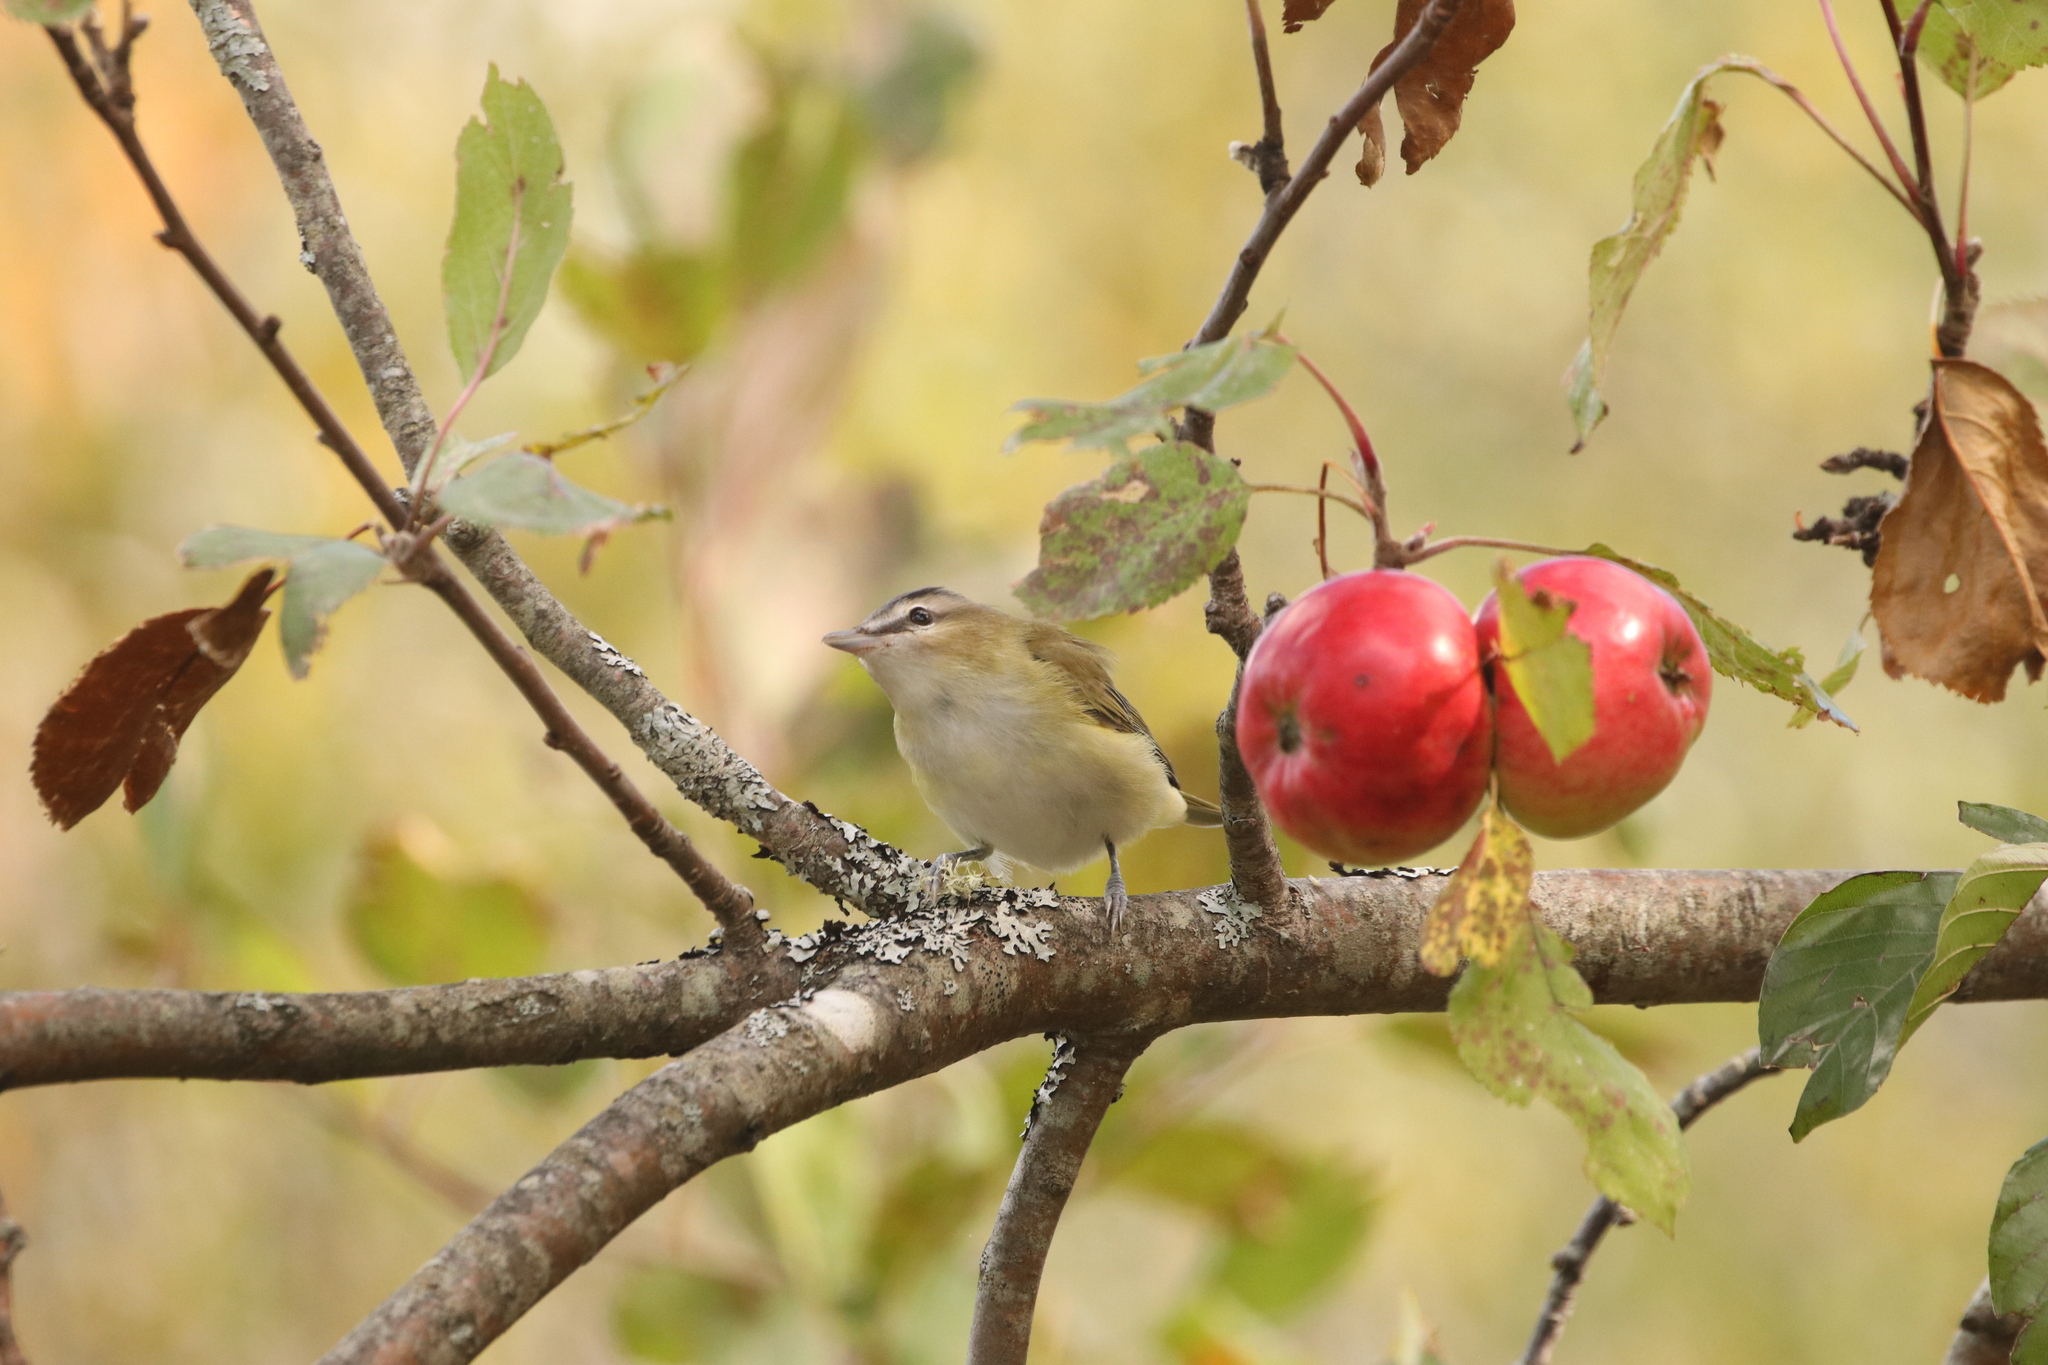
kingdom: Animalia
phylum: Chordata
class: Aves
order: Passeriformes
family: Vireonidae
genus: Vireo
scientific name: Vireo olivaceus
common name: Red-eyed vireo
